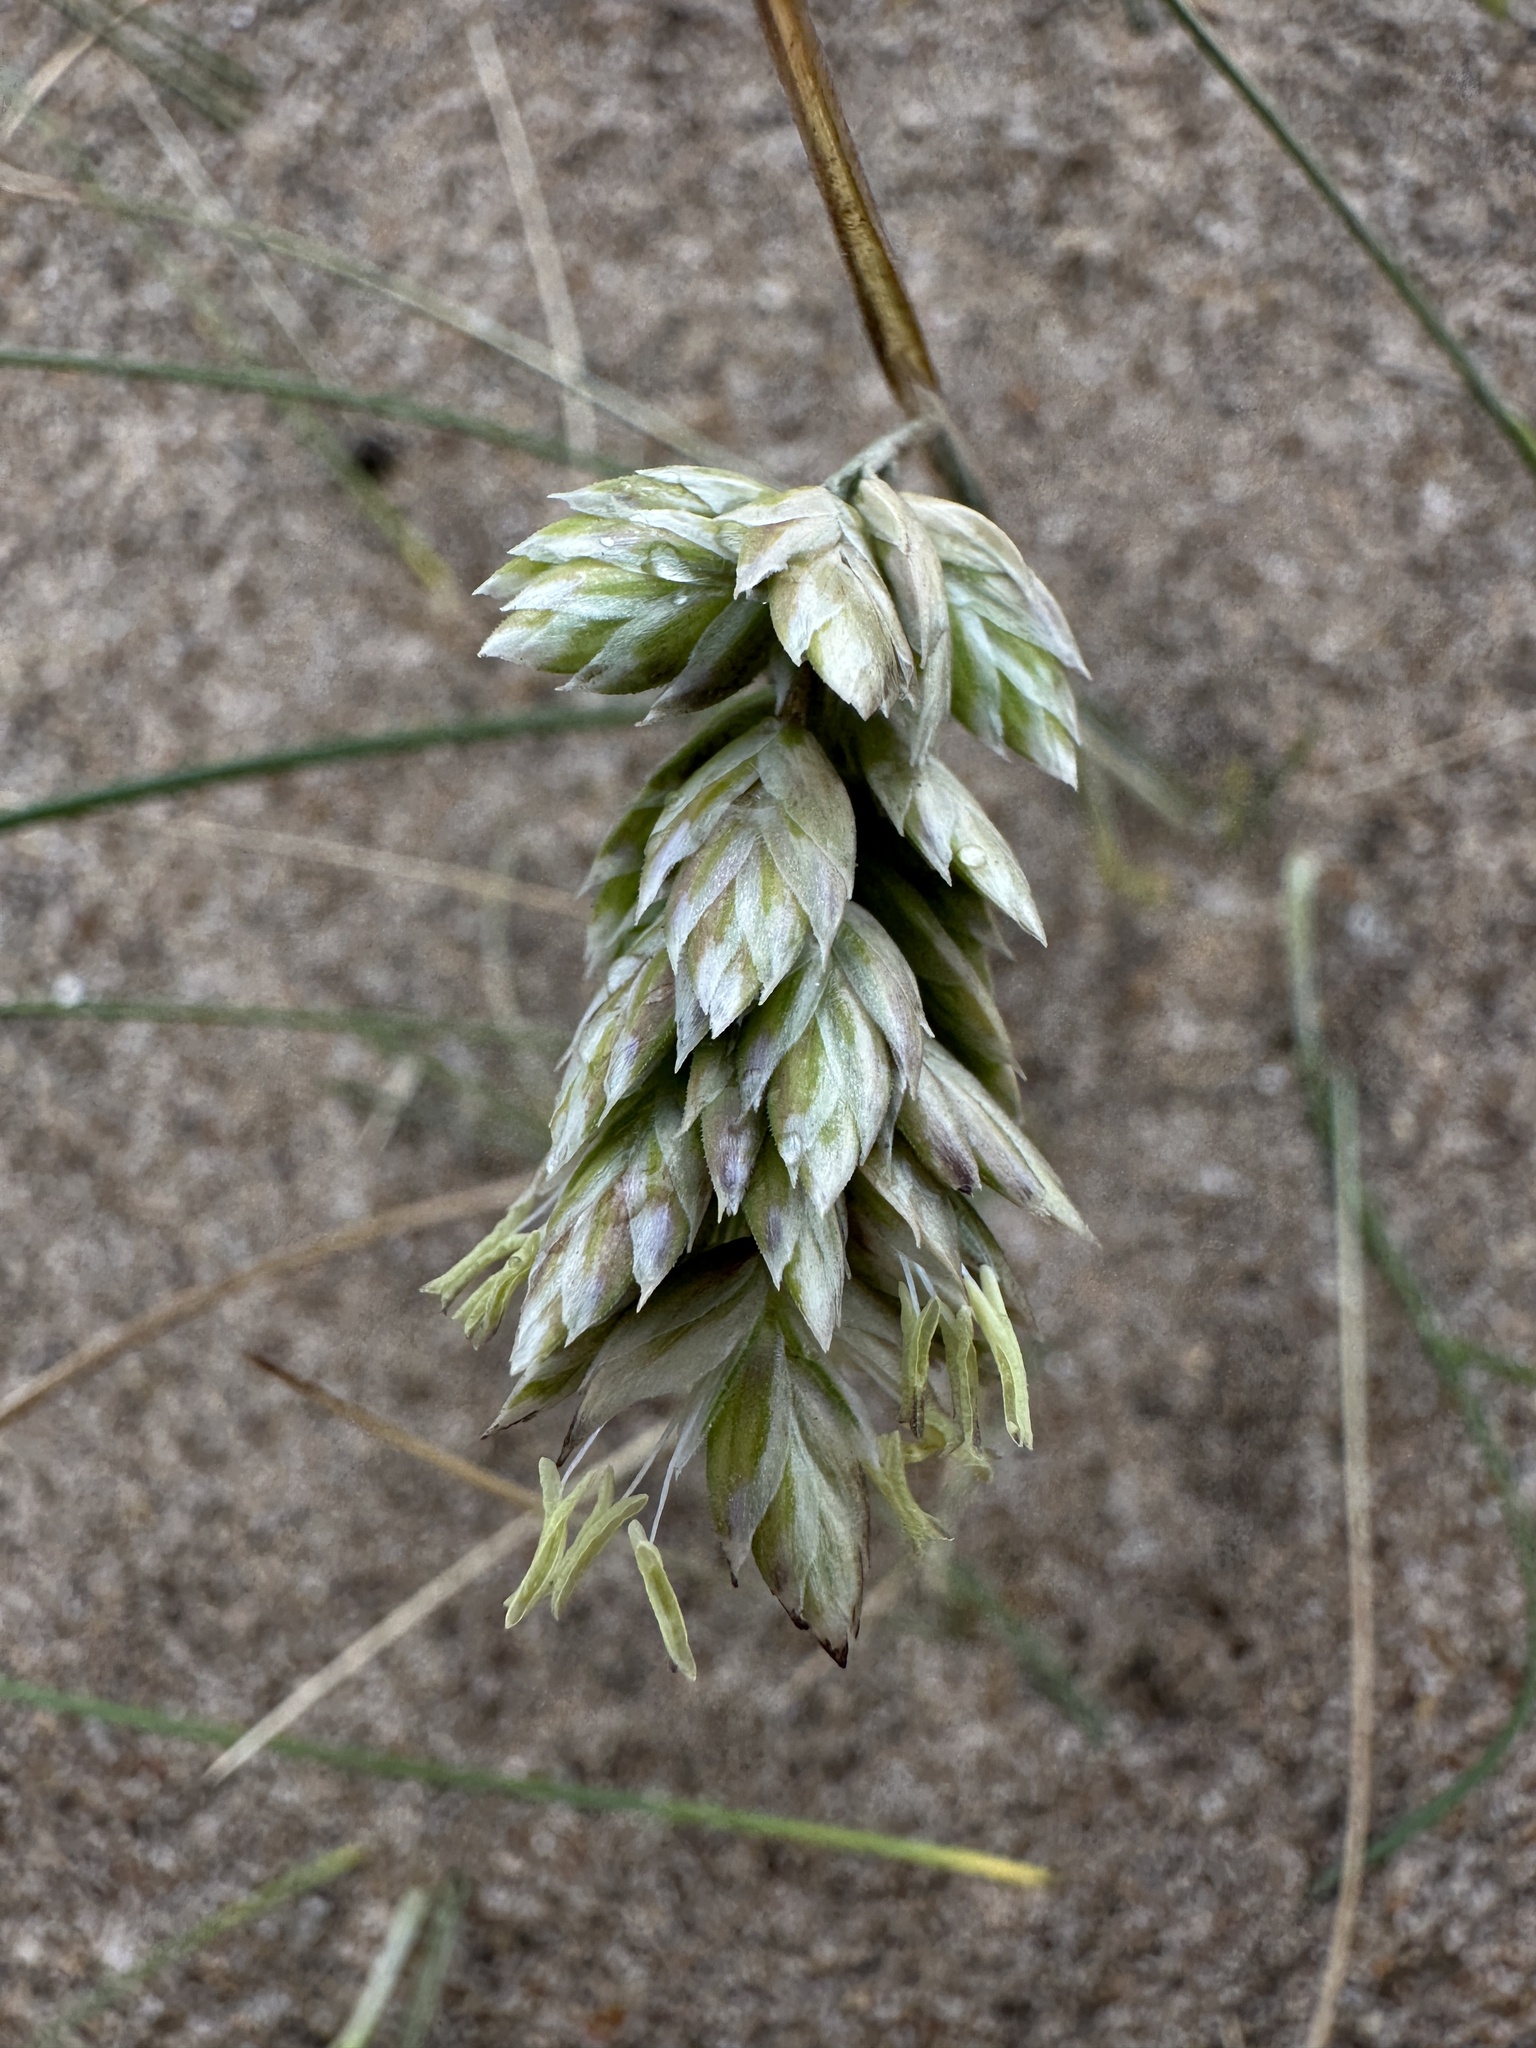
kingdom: Plantae
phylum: Tracheophyta
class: Liliopsida
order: Poales
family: Poaceae
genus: Poa
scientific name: Poa douglasii
